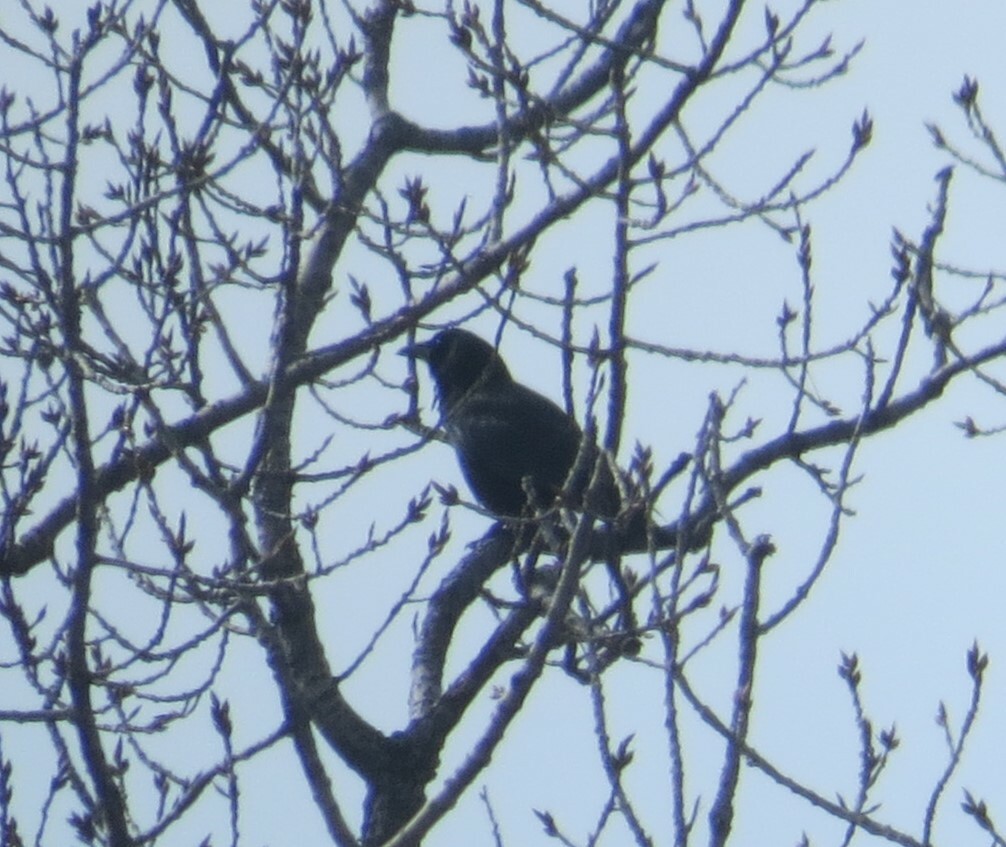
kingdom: Animalia
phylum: Chordata
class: Aves
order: Passeriformes
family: Corvidae
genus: Corvus
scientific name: Corvus brachyrhynchos
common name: American crow
